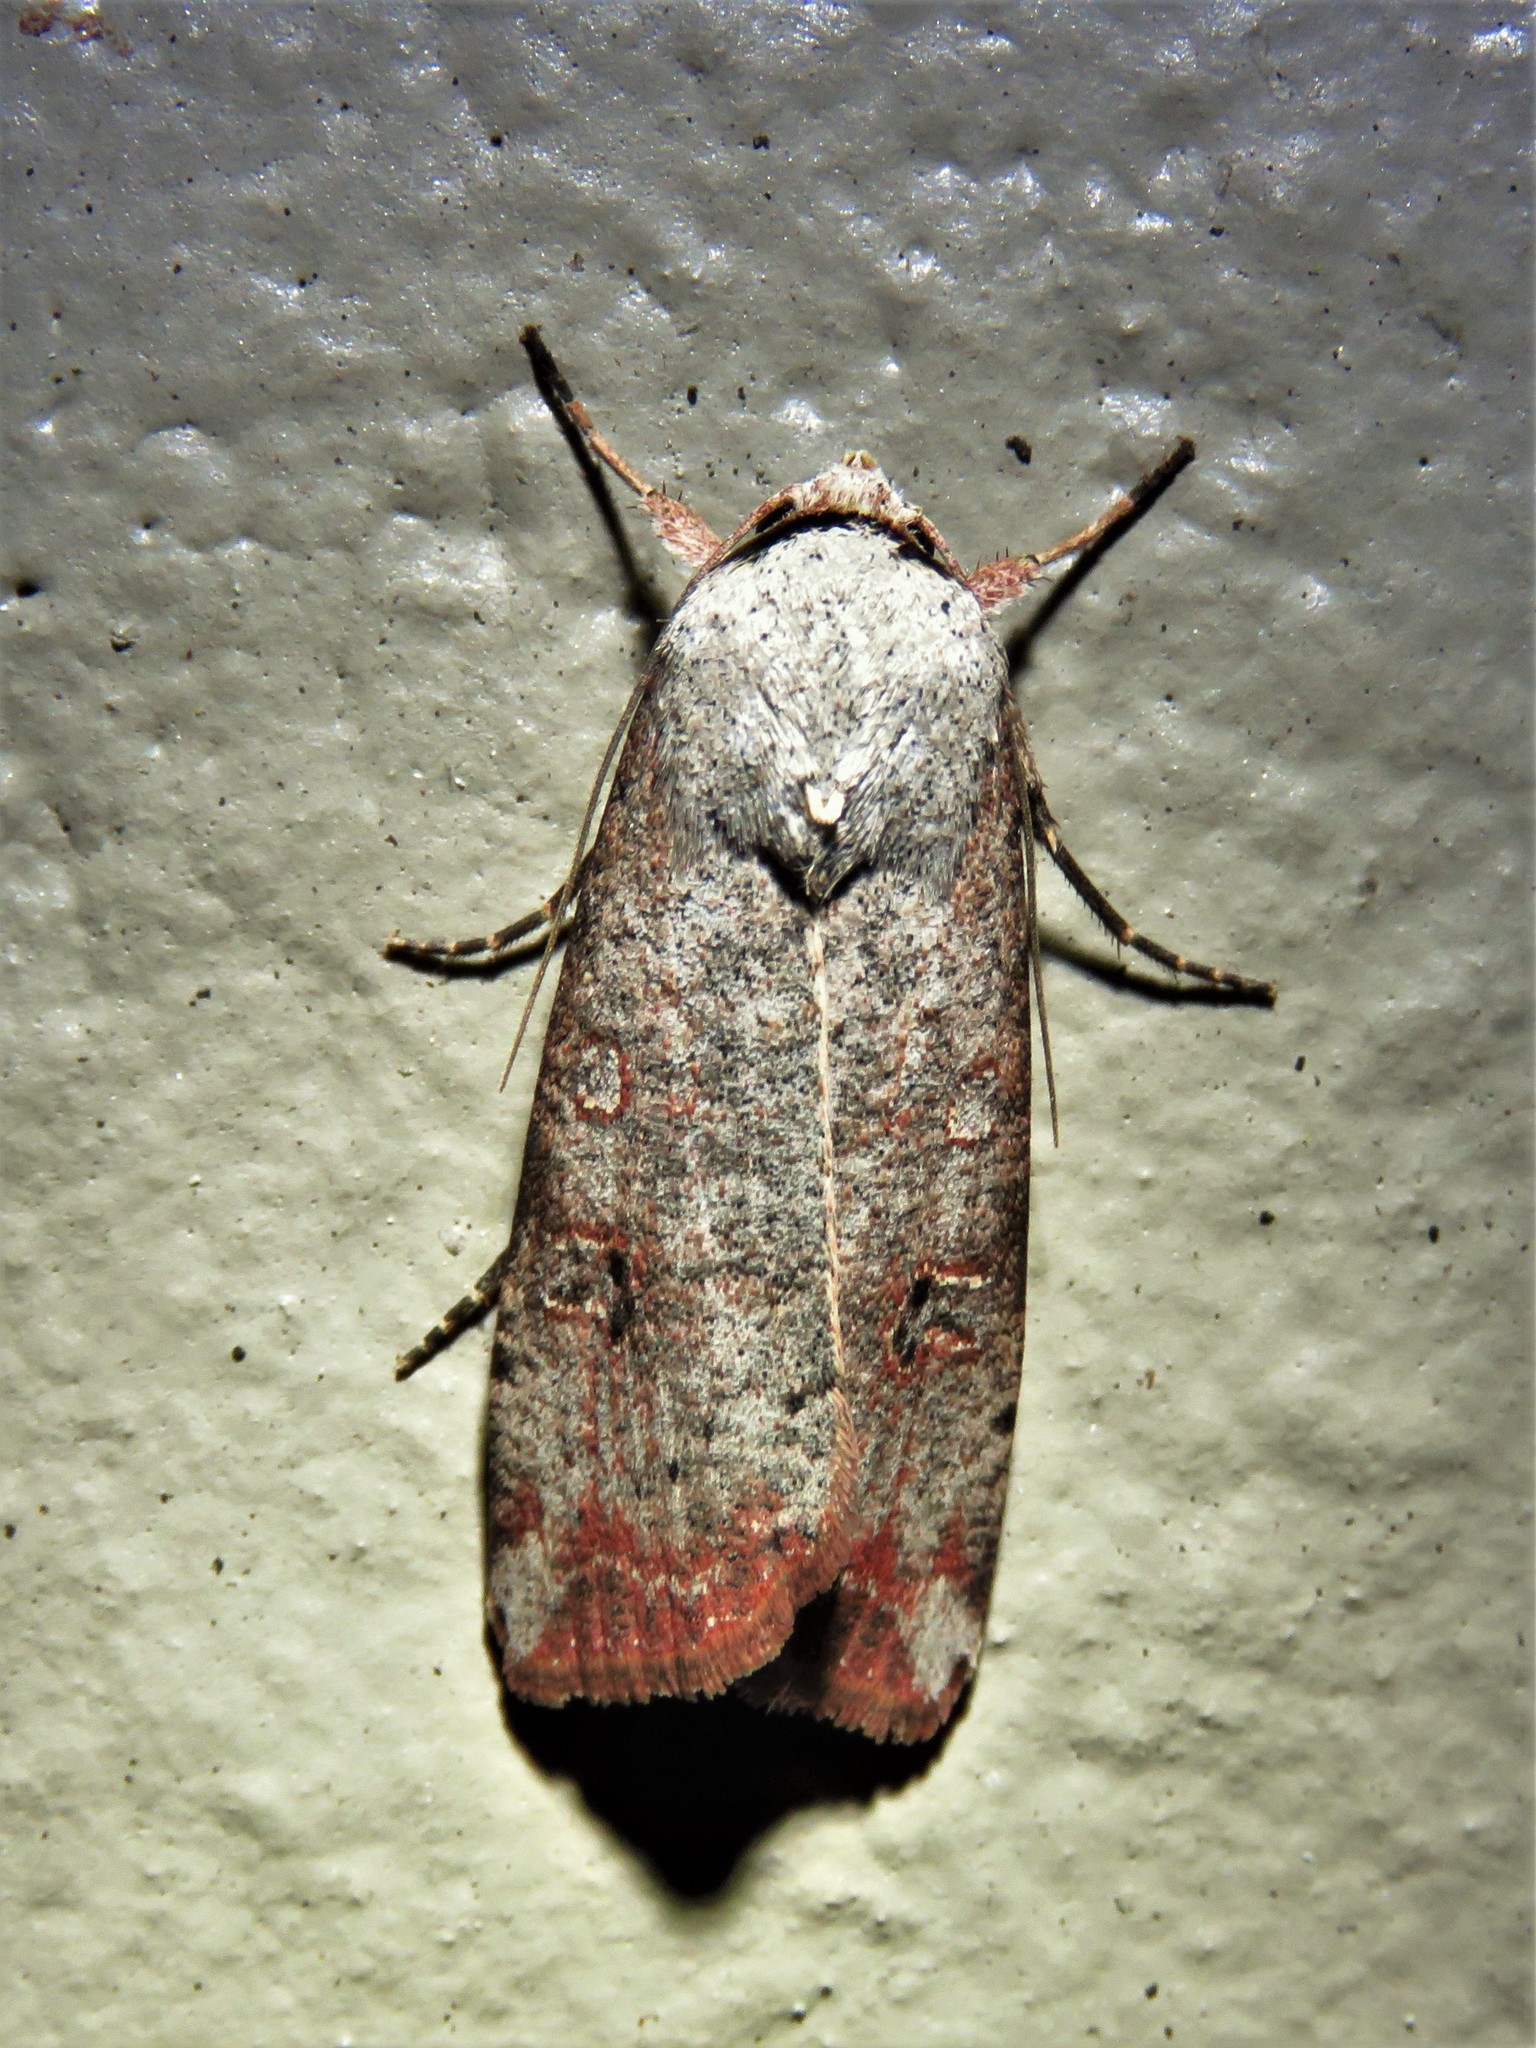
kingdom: Animalia
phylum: Arthropoda
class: Insecta
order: Lepidoptera
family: Noctuidae
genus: Anicla
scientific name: Anicla infecta
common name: Green cutworm
